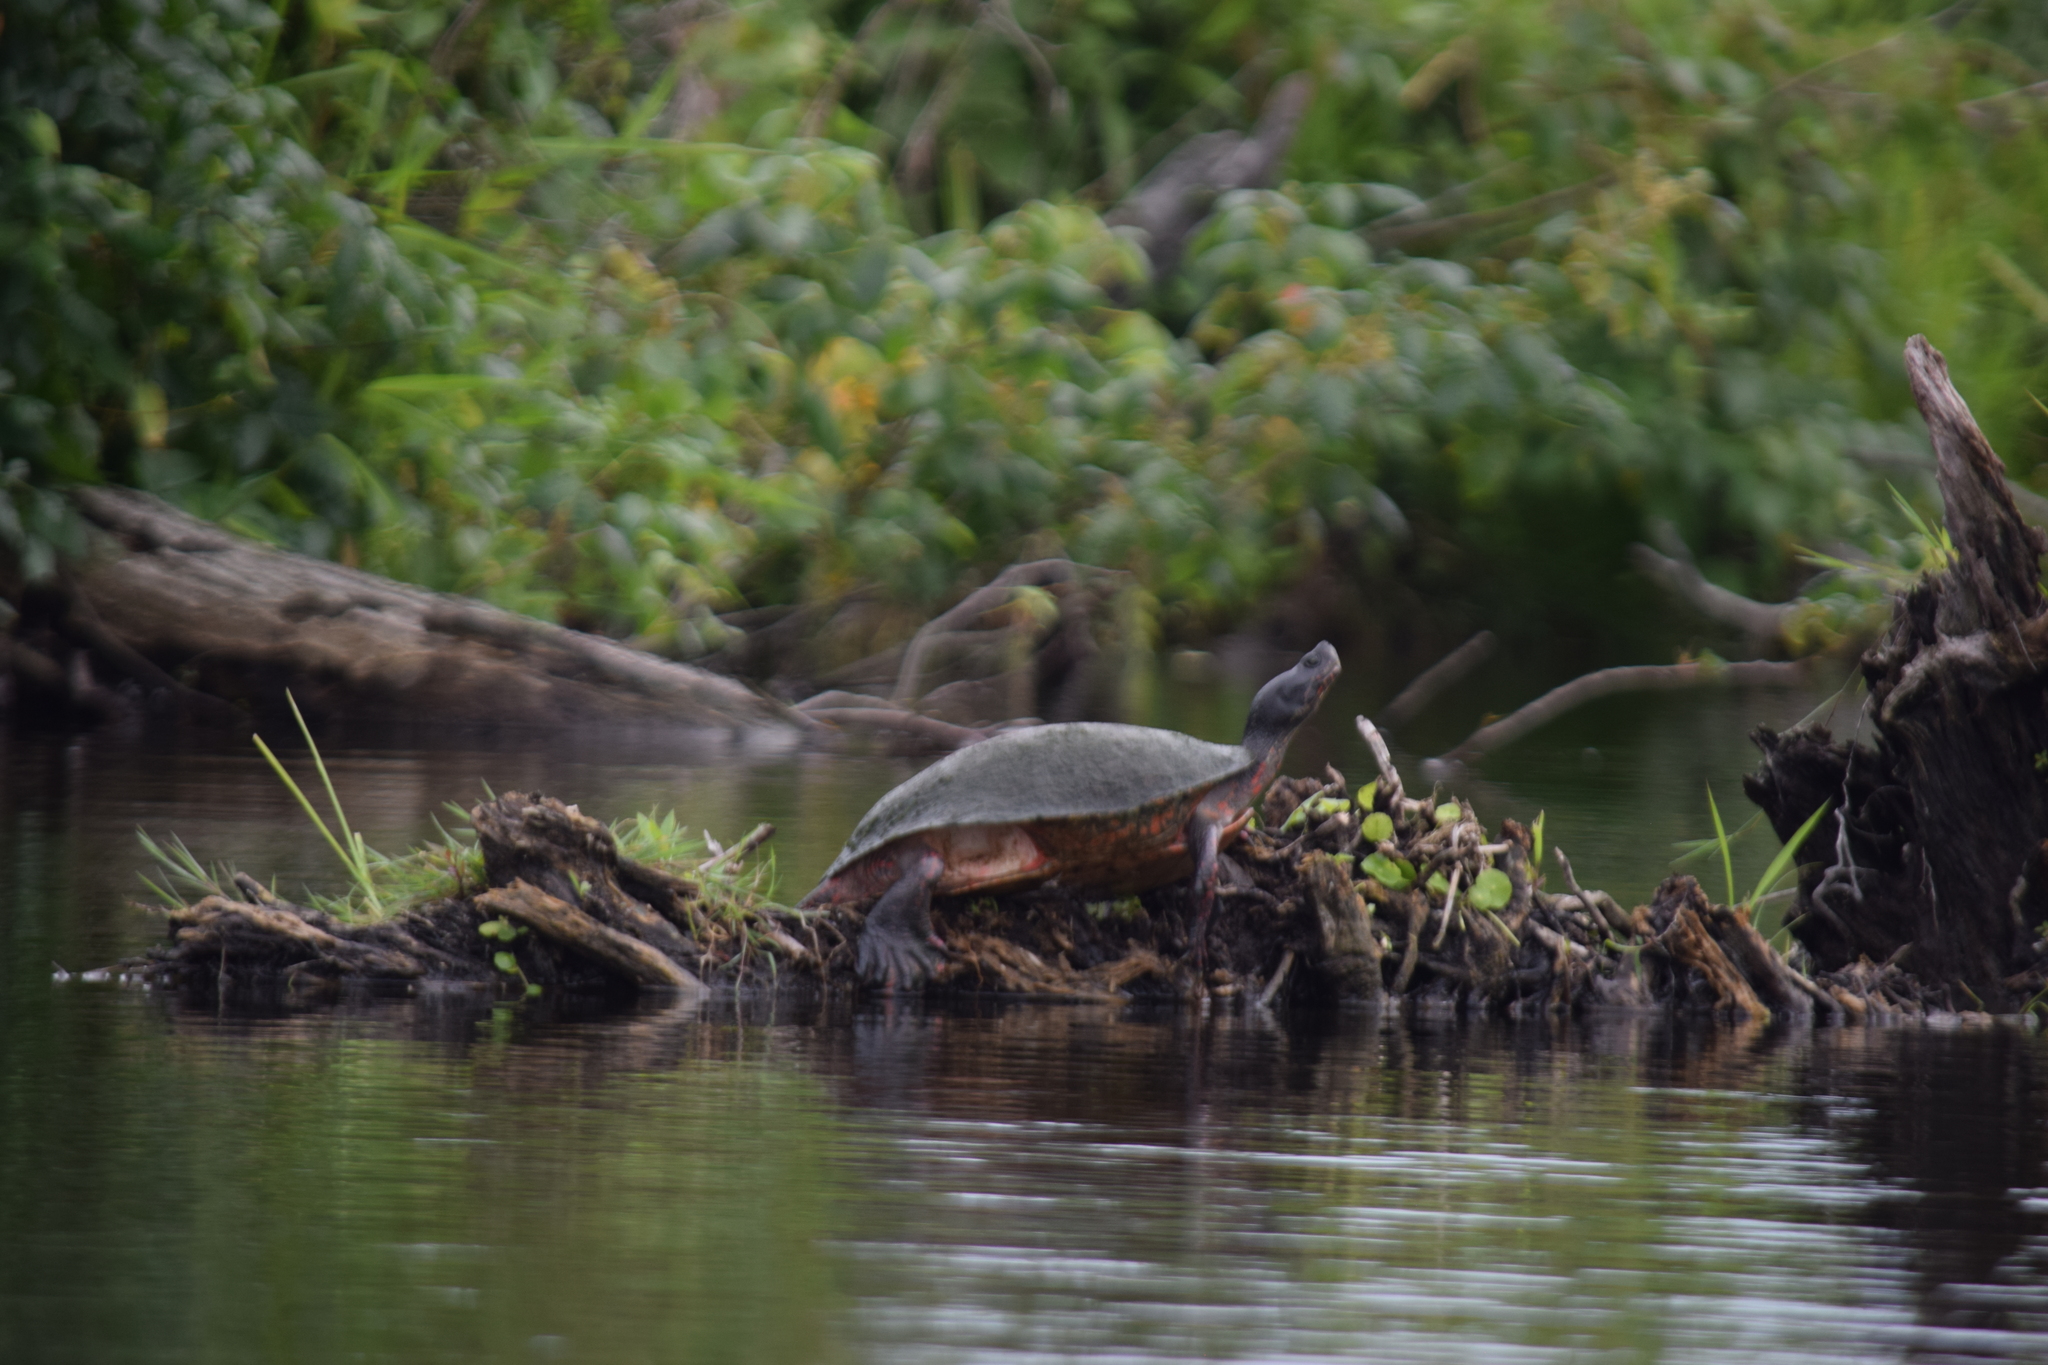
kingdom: Animalia
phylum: Chordata
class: Testudines
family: Emydidae
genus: Pseudemys
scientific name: Pseudemys rubriventris
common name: American red-bellied turtle
